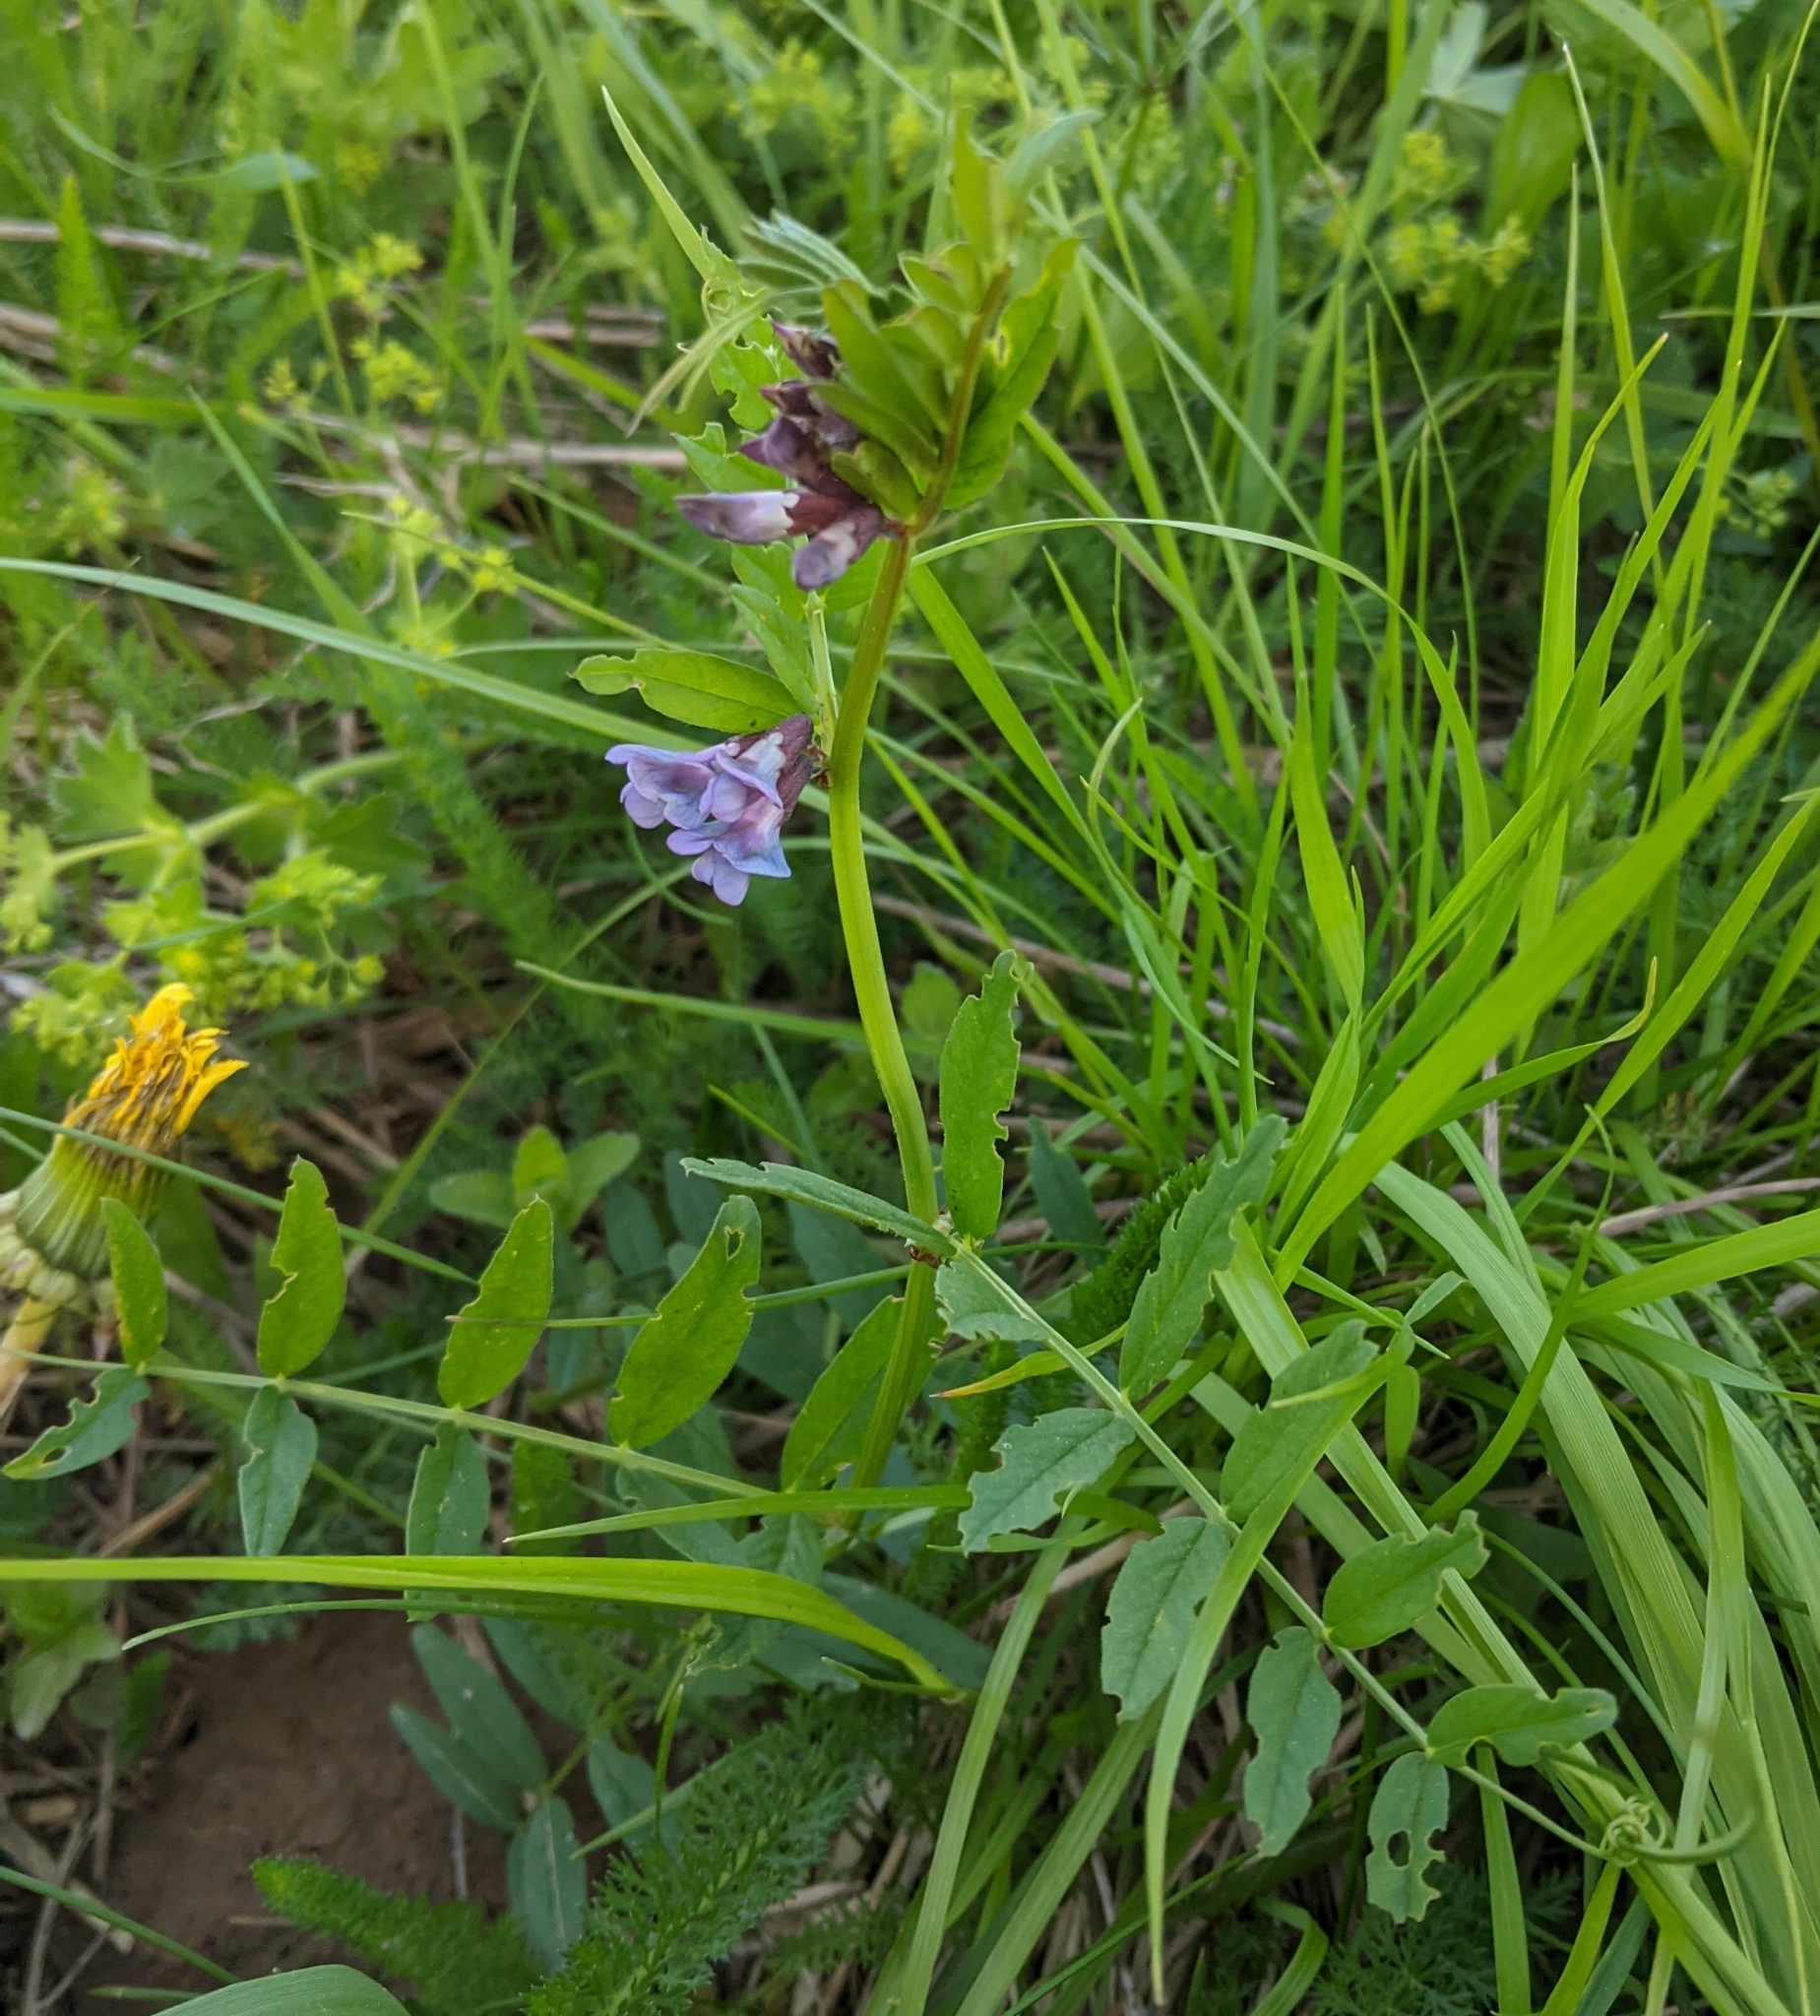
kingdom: Plantae
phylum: Tracheophyta
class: Magnoliopsida
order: Fabales
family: Fabaceae
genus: Vicia
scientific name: Vicia sepium
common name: Bush vetch
